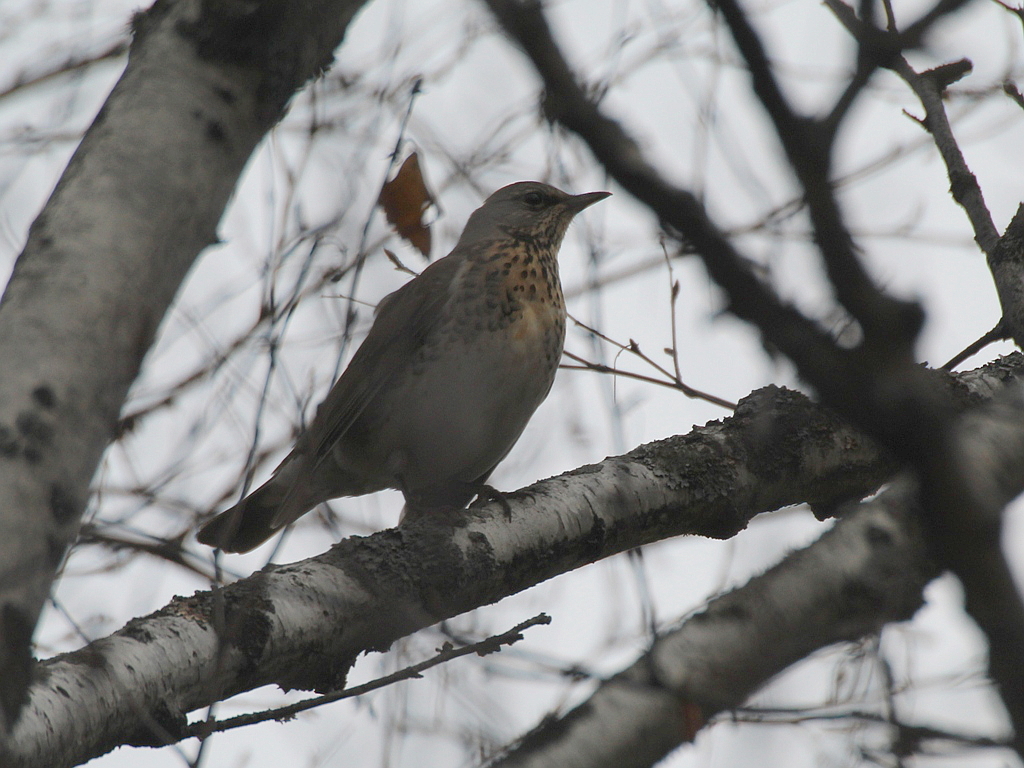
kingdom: Animalia
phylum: Chordata
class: Aves
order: Passeriformes
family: Turdidae
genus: Turdus
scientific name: Turdus pilaris
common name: Fieldfare
